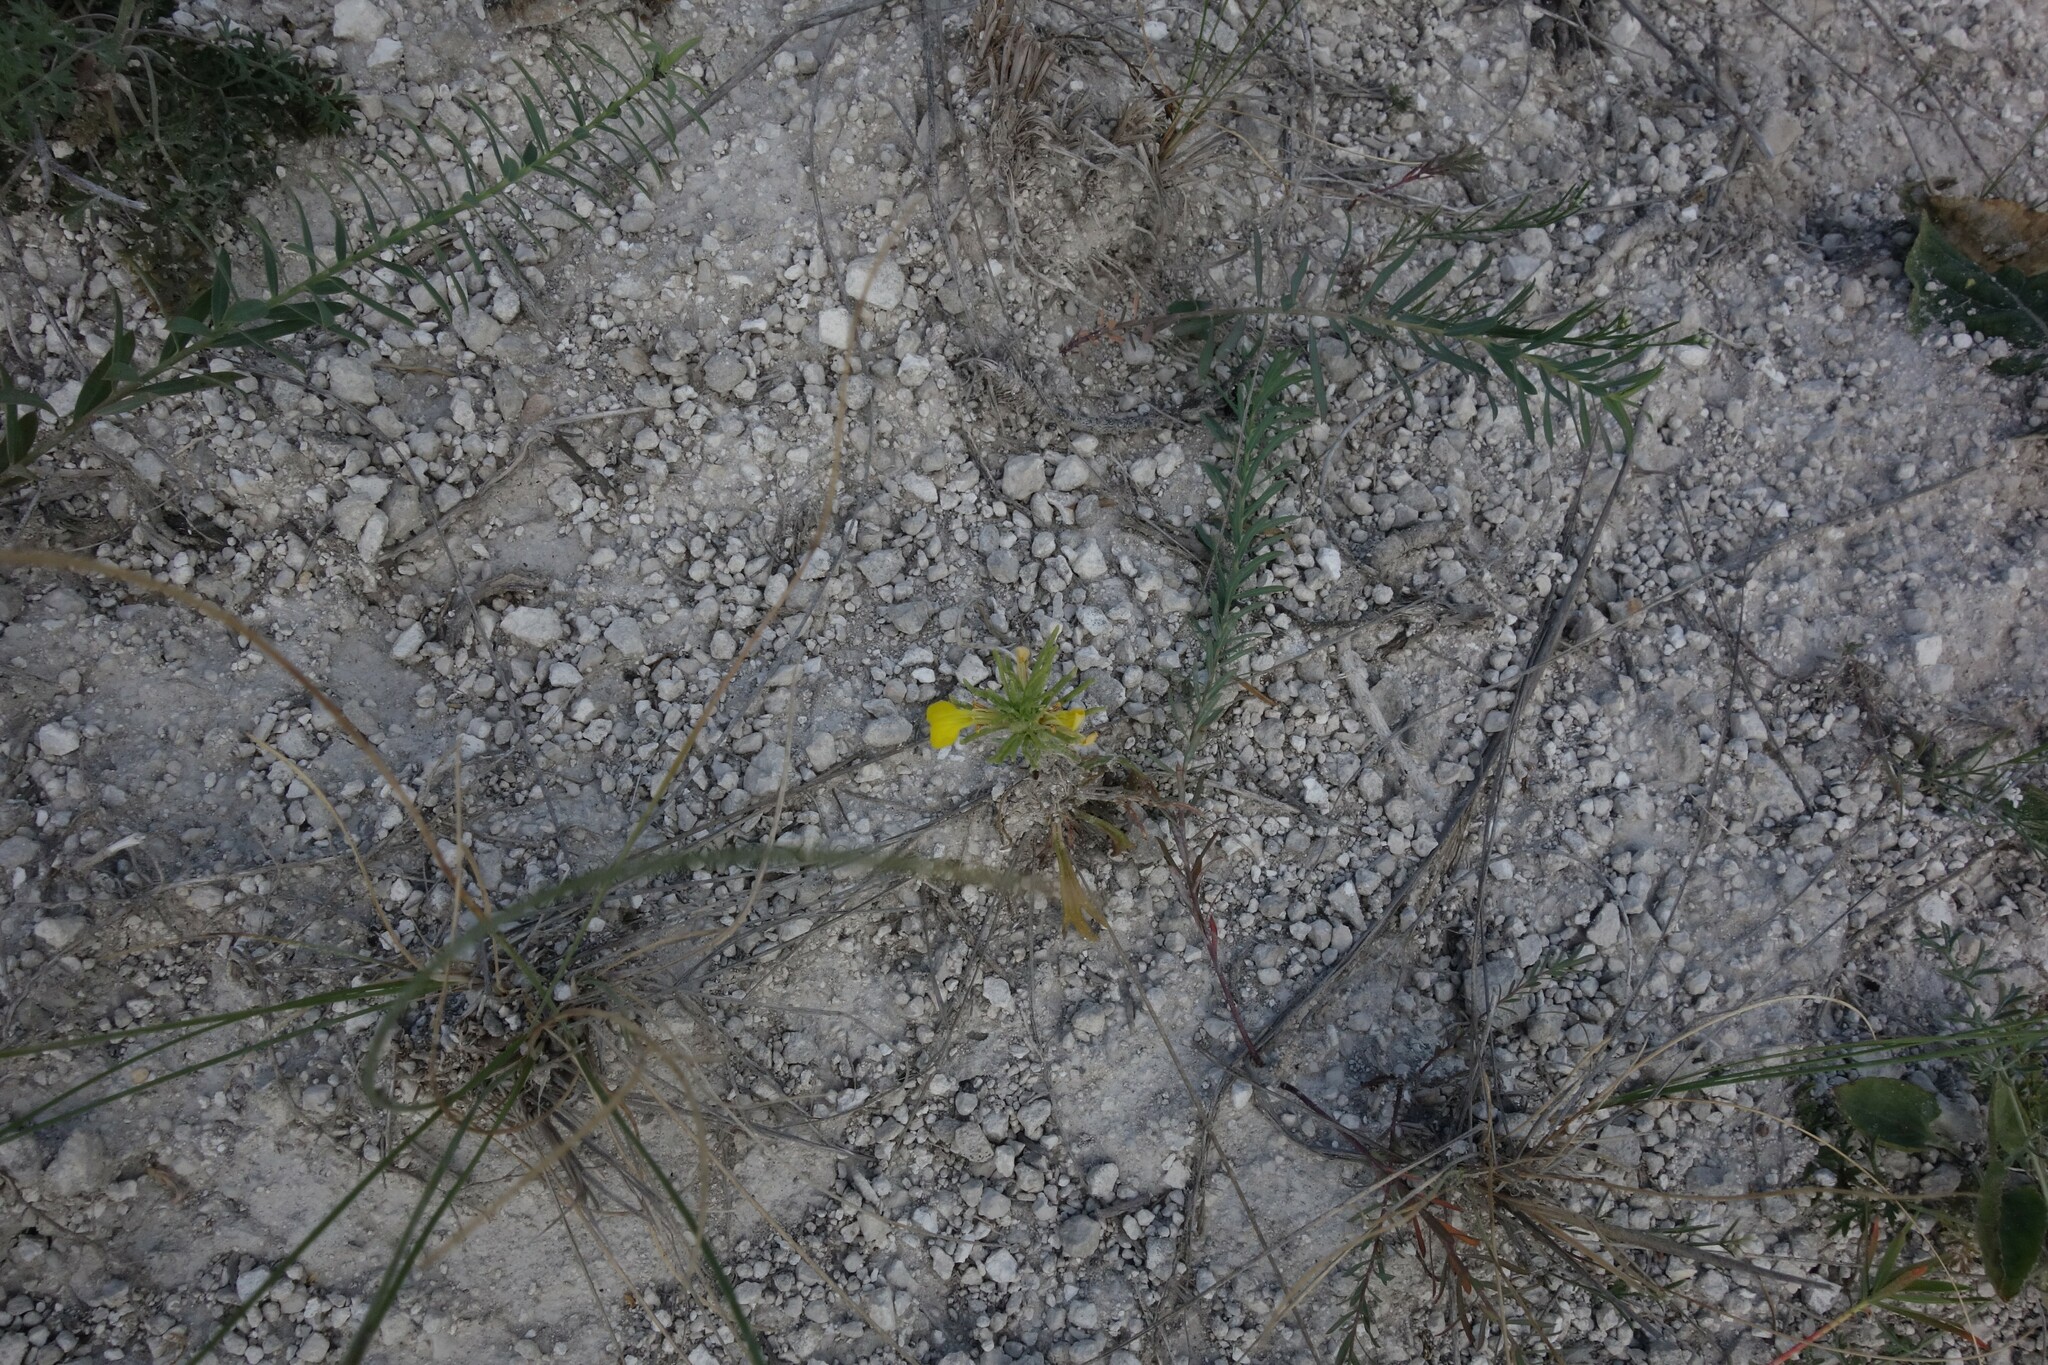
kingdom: Plantae
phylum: Tracheophyta
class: Magnoliopsida
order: Lamiales
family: Lamiaceae
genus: Ajuga
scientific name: Ajuga chamaepitys
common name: Ground-pine
